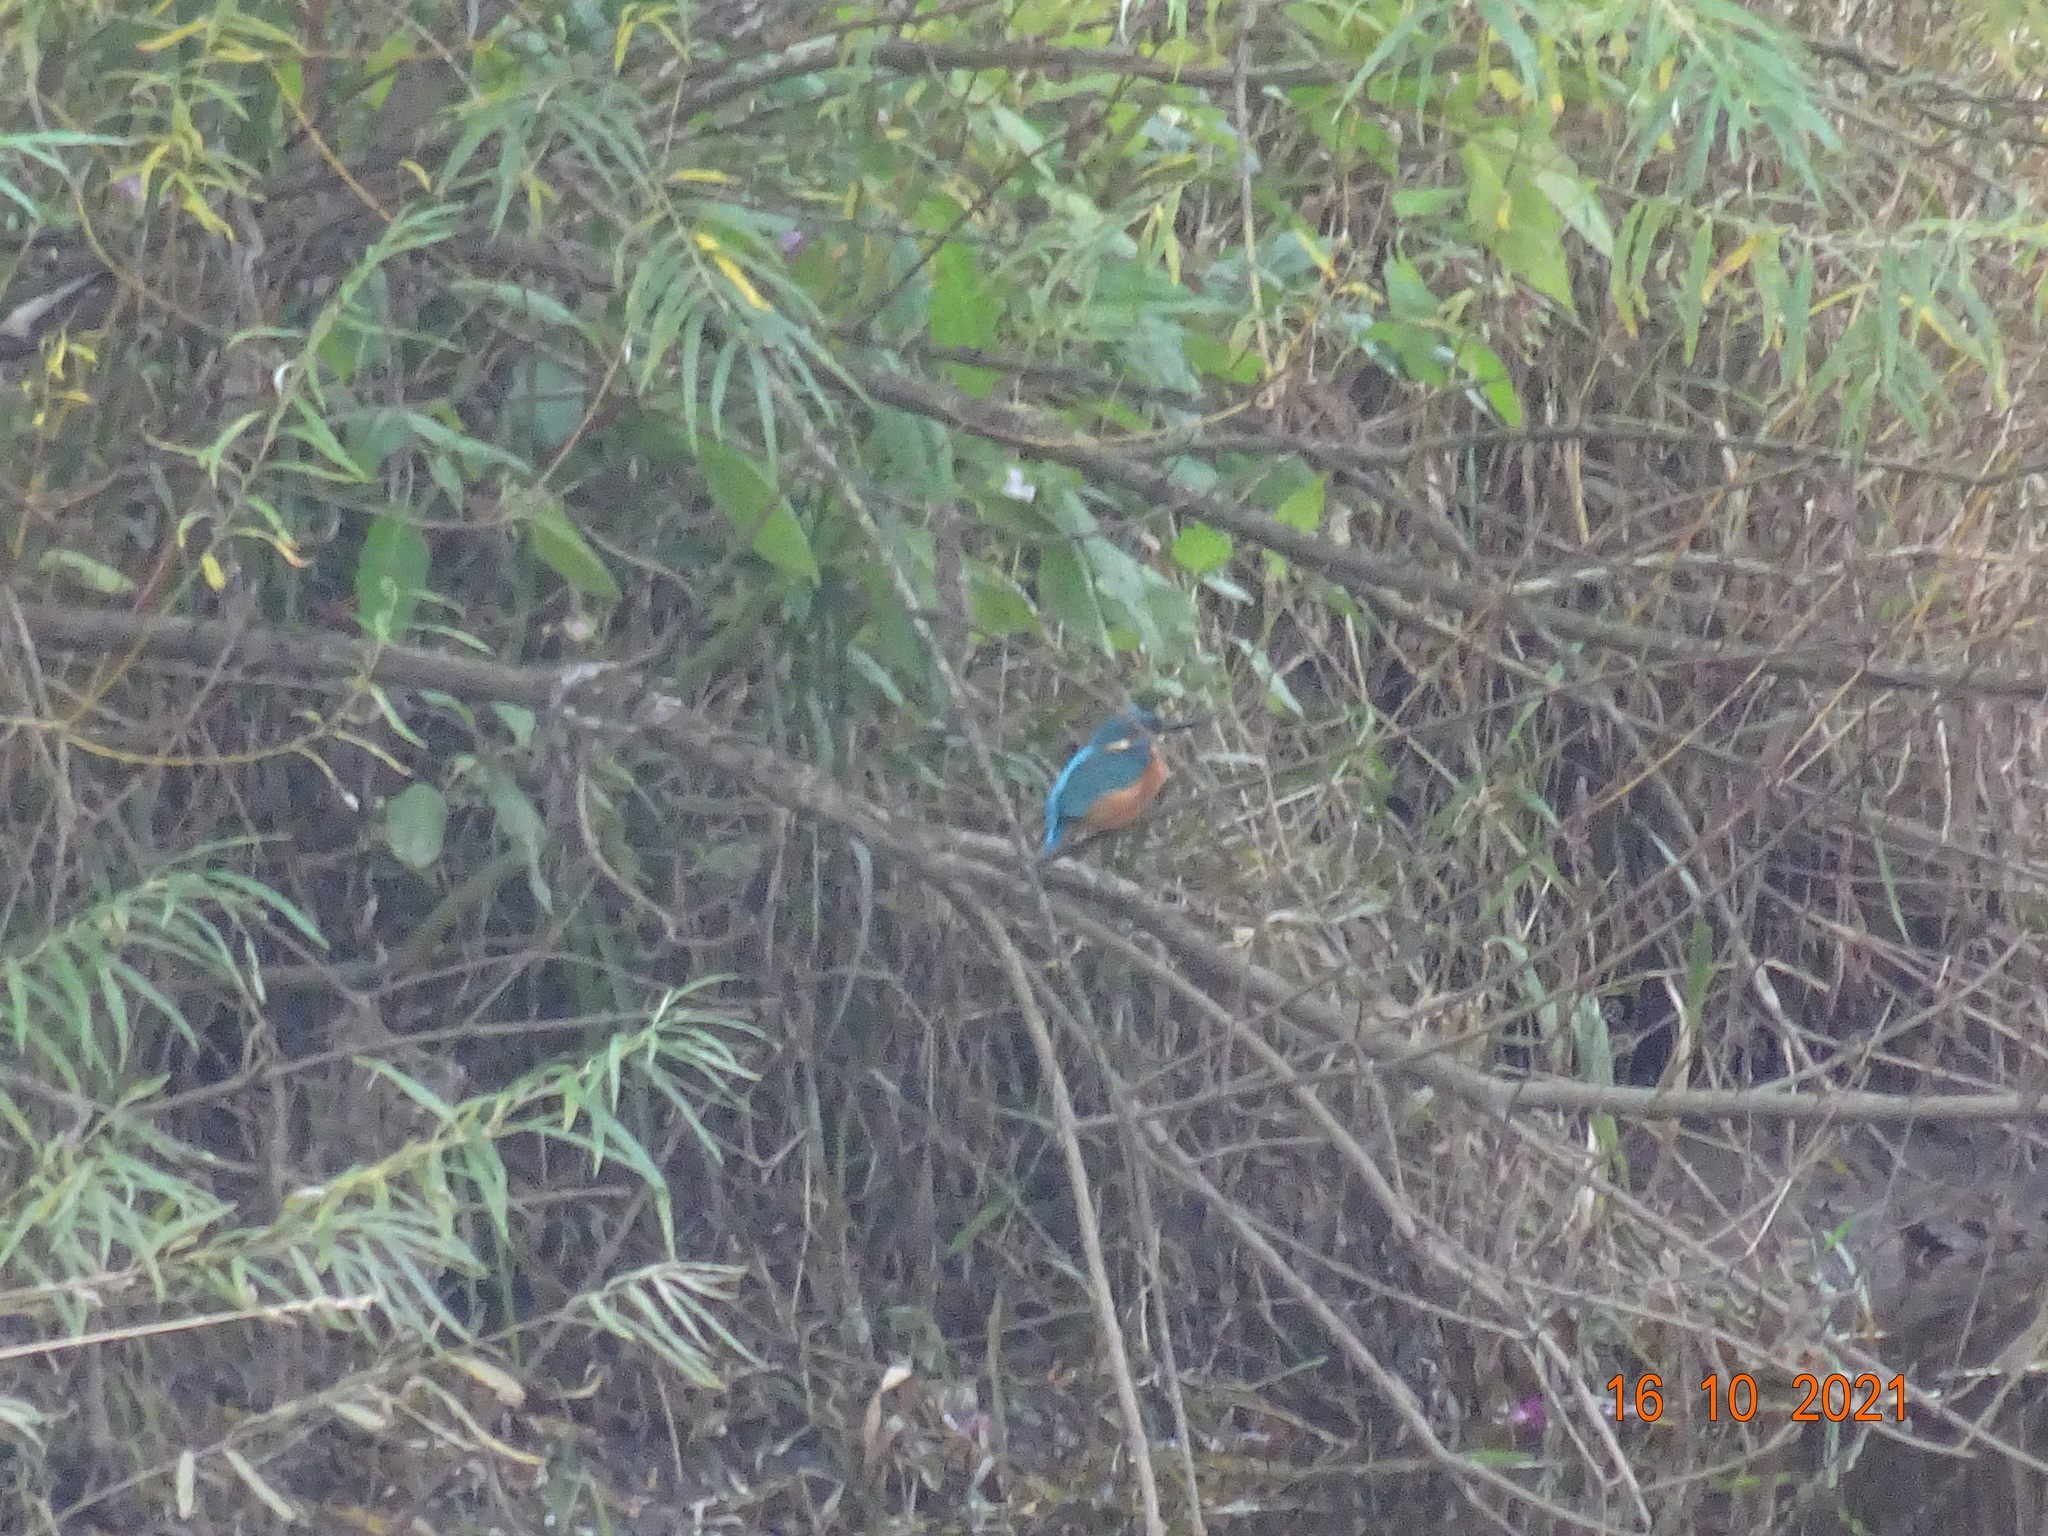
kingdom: Animalia
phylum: Chordata
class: Aves
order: Coraciiformes
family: Alcedinidae
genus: Alcedo
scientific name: Alcedo atthis
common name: Common kingfisher
